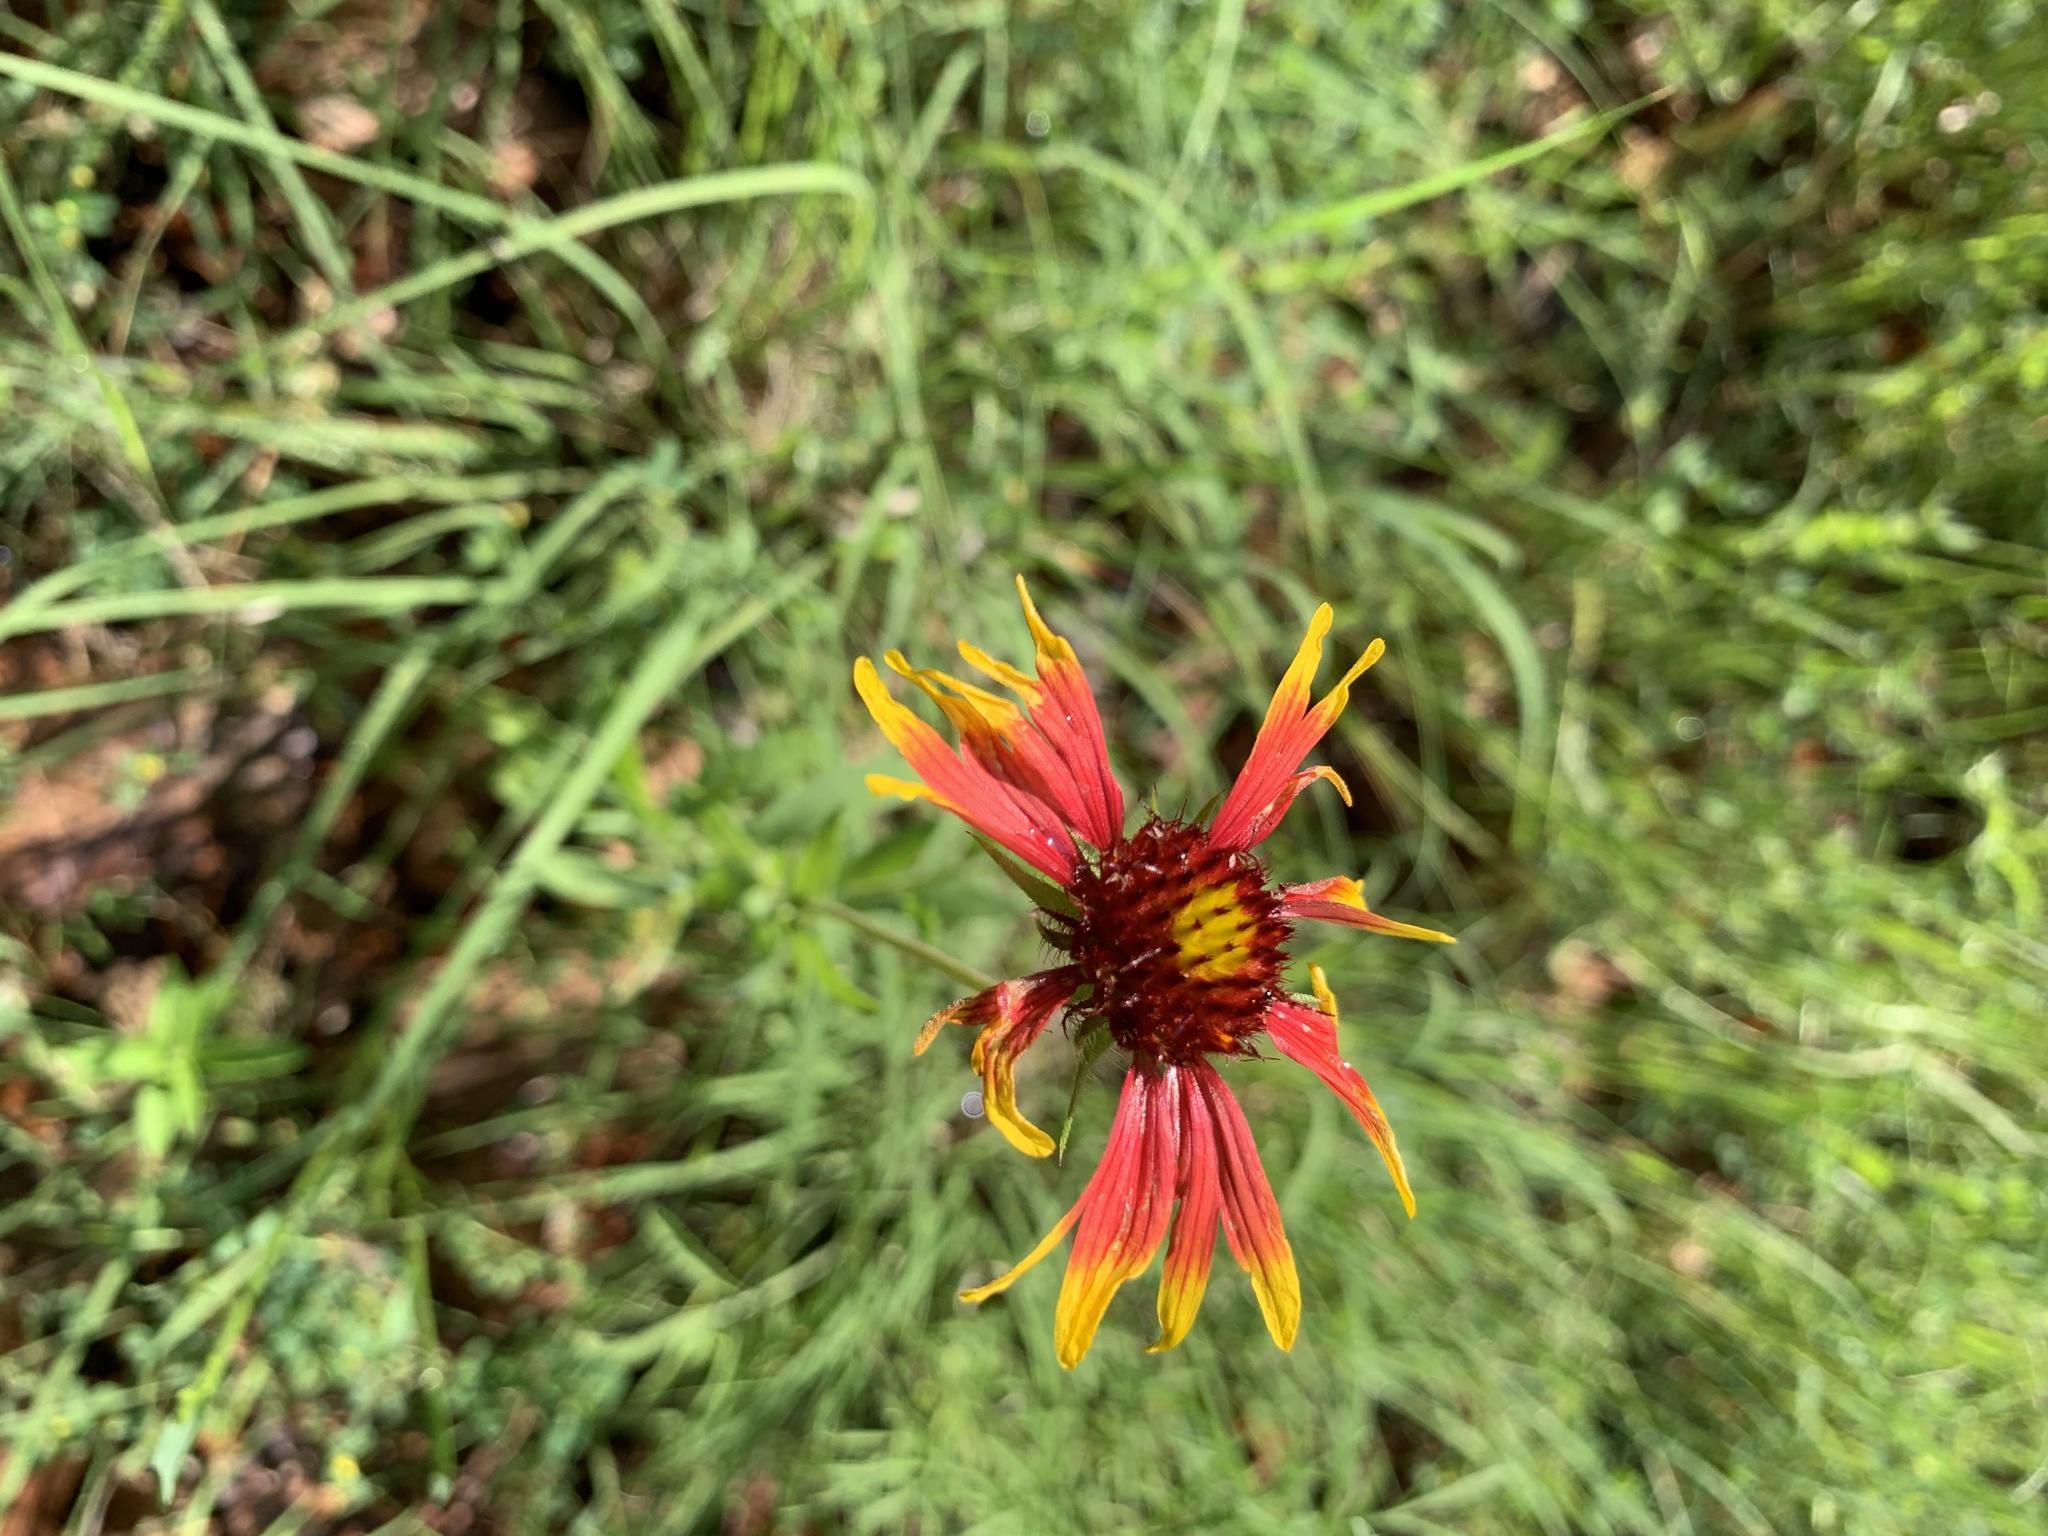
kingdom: Plantae
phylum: Tracheophyta
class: Magnoliopsida
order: Asterales
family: Asteraceae
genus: Gaillardia
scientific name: Gaillardia pulchella
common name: Firewheel
